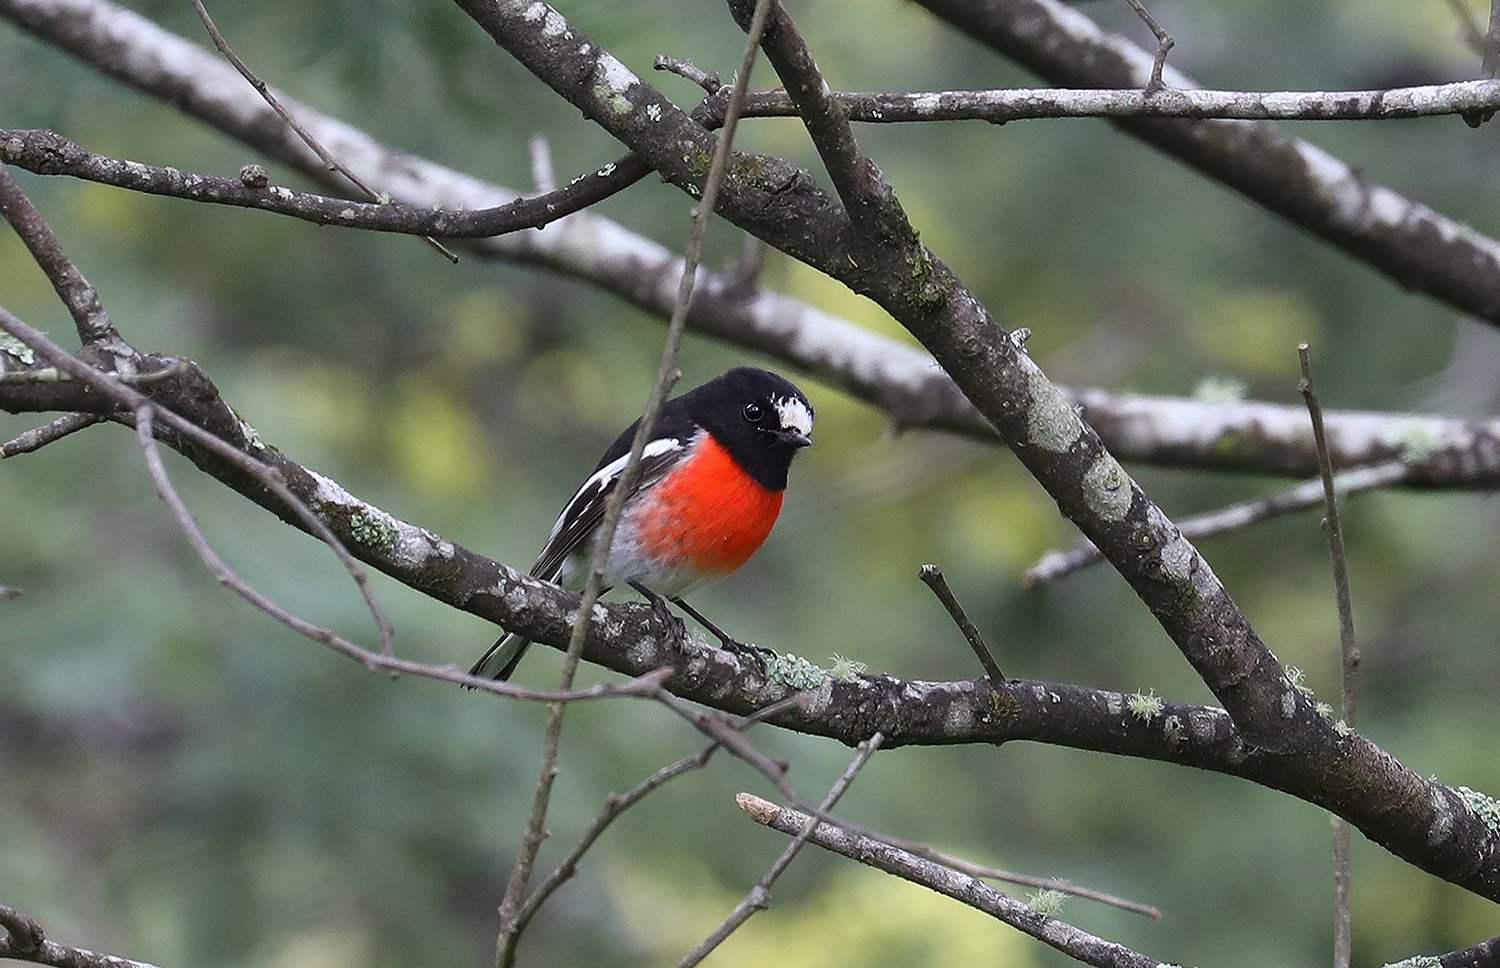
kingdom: Animalia
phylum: Chordata
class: Aves
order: Passeriformes
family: Petroicidae
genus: Petroica
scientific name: Petroica boodang
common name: Scarlet robin
